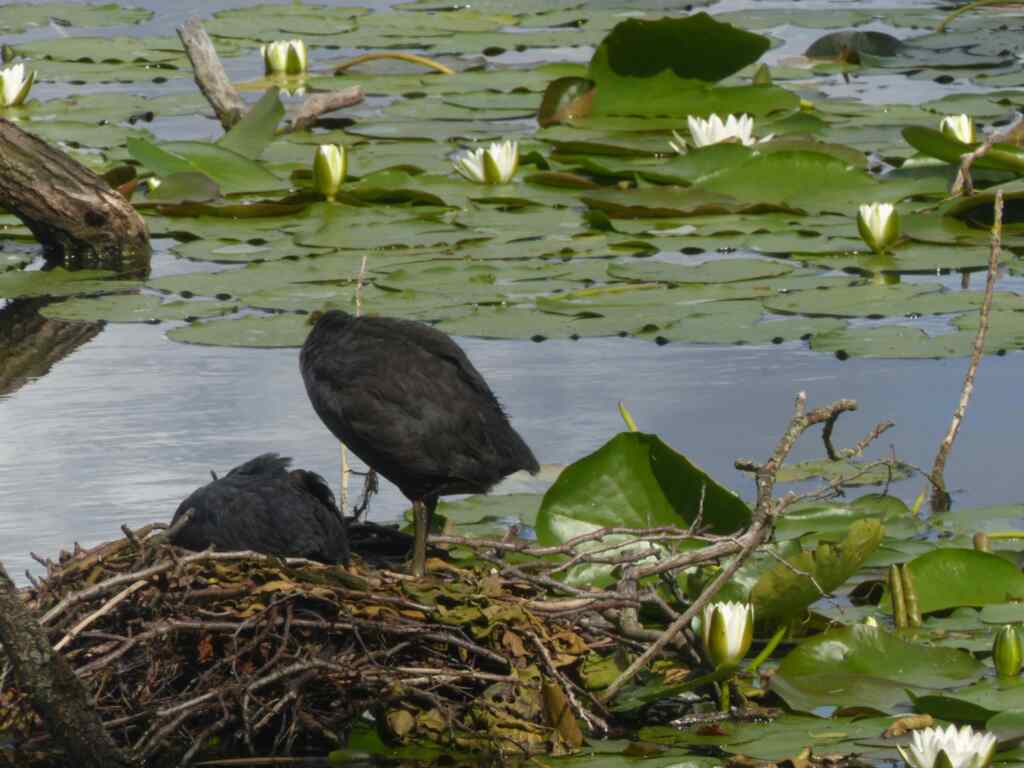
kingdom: Animalia
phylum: Chordata
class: Aves
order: Gruiformes
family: Rallidae
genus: Fulica
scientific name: Fulica atra
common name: Eurasian coot
